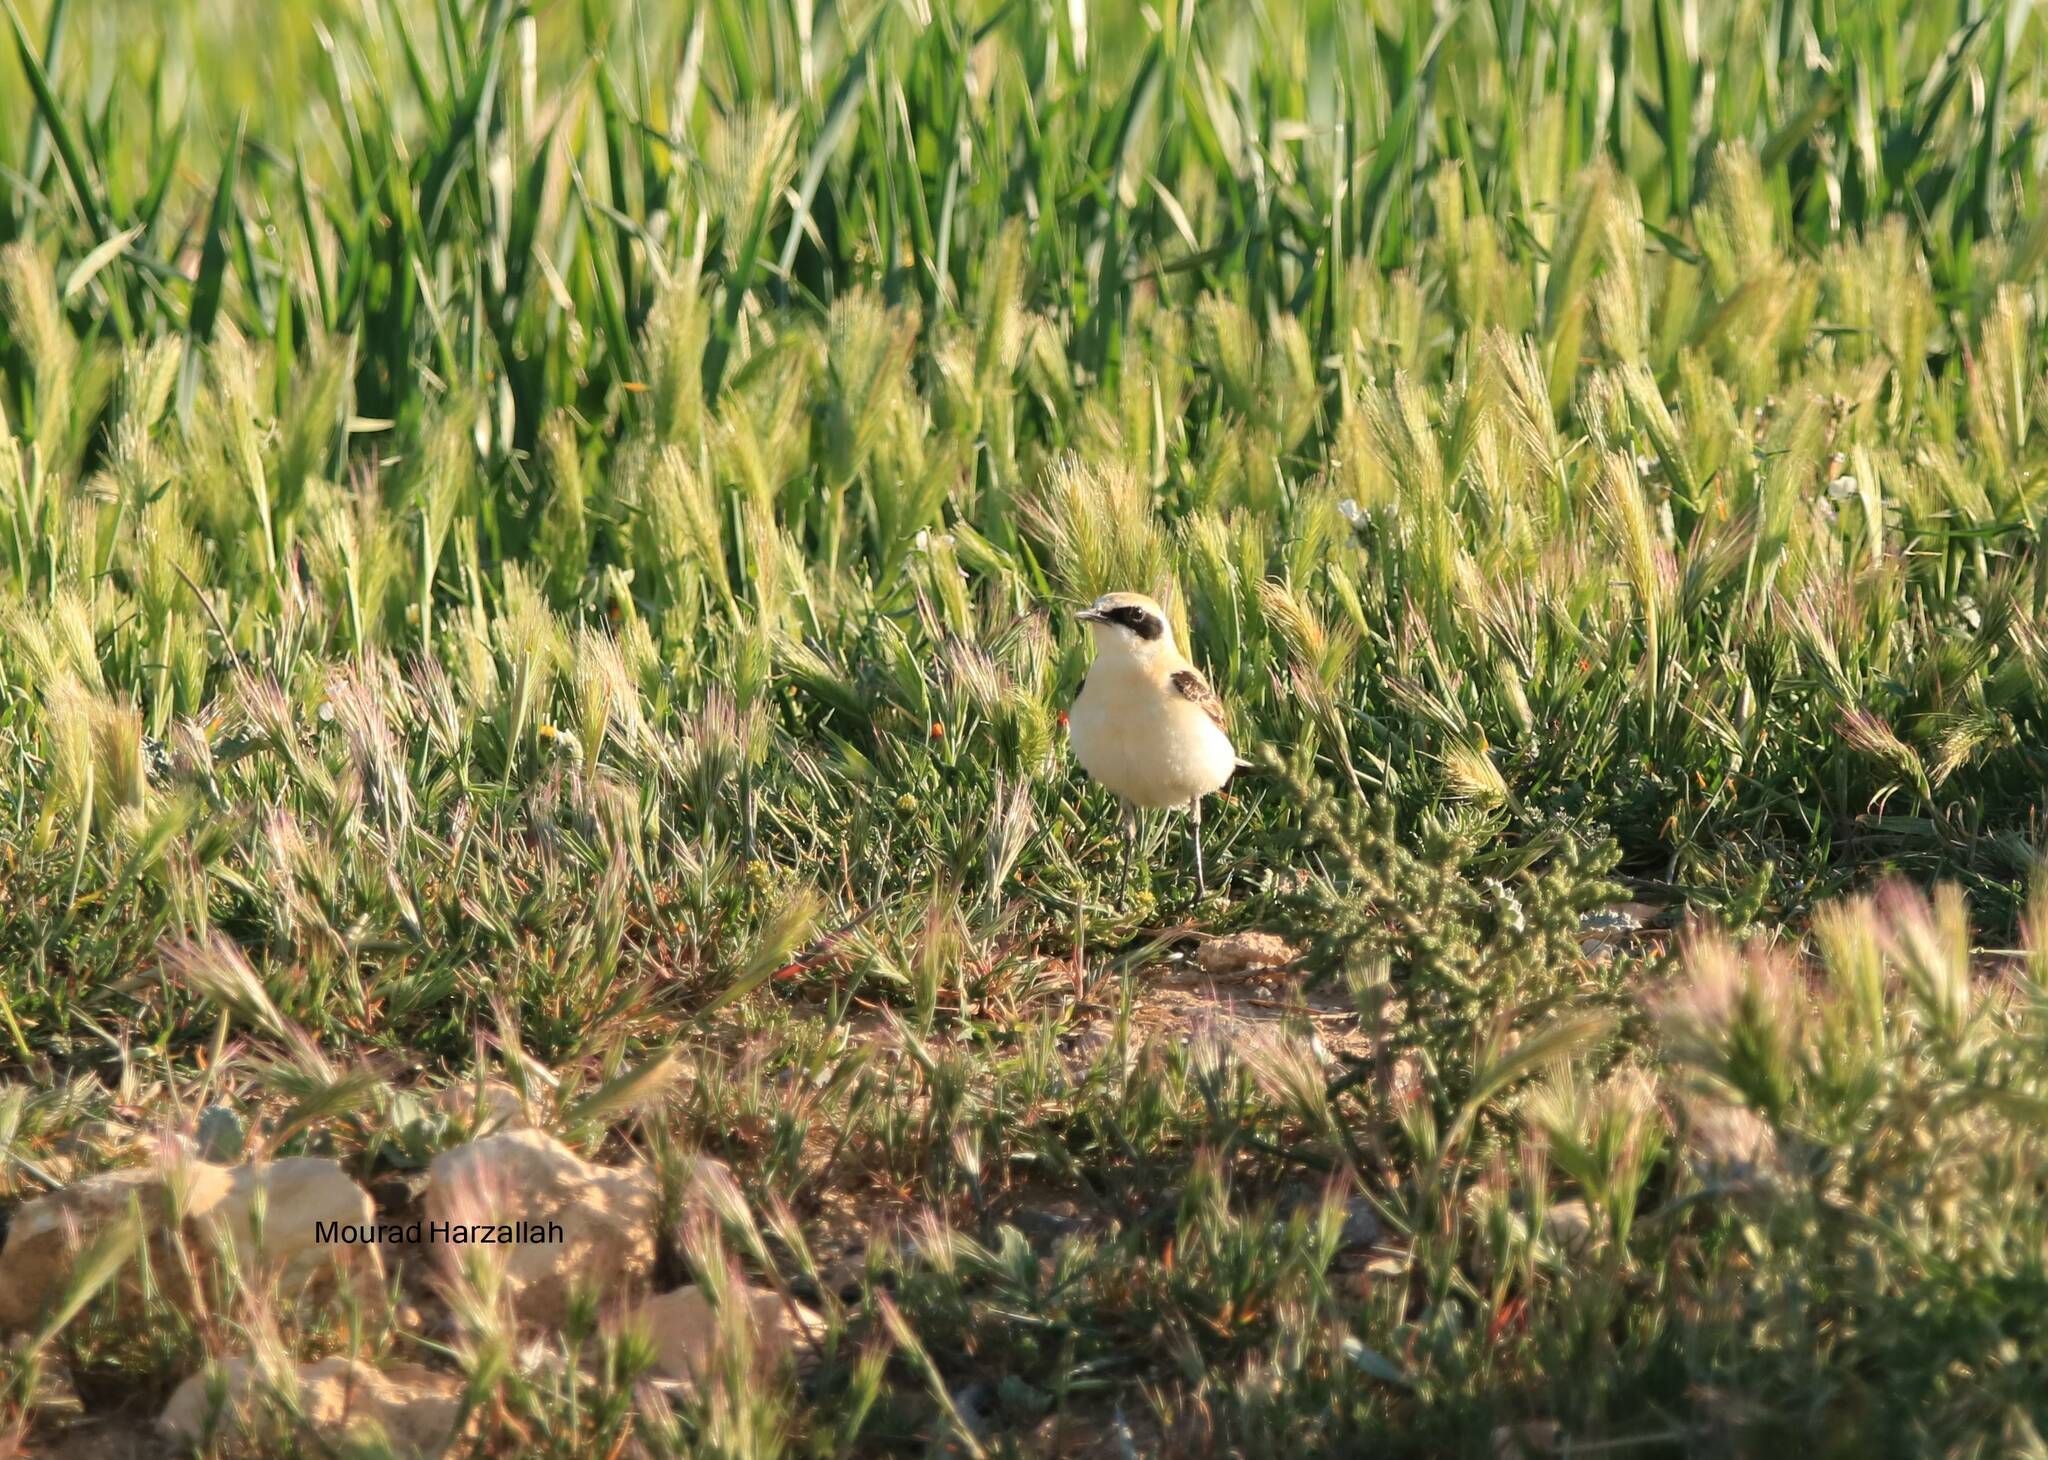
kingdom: Animalia
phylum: Chordata
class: Aves
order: Passeriformes
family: Muscicapidae
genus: Oenanthe
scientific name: Oenanthe hispanica
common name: Black-eared wheatear
